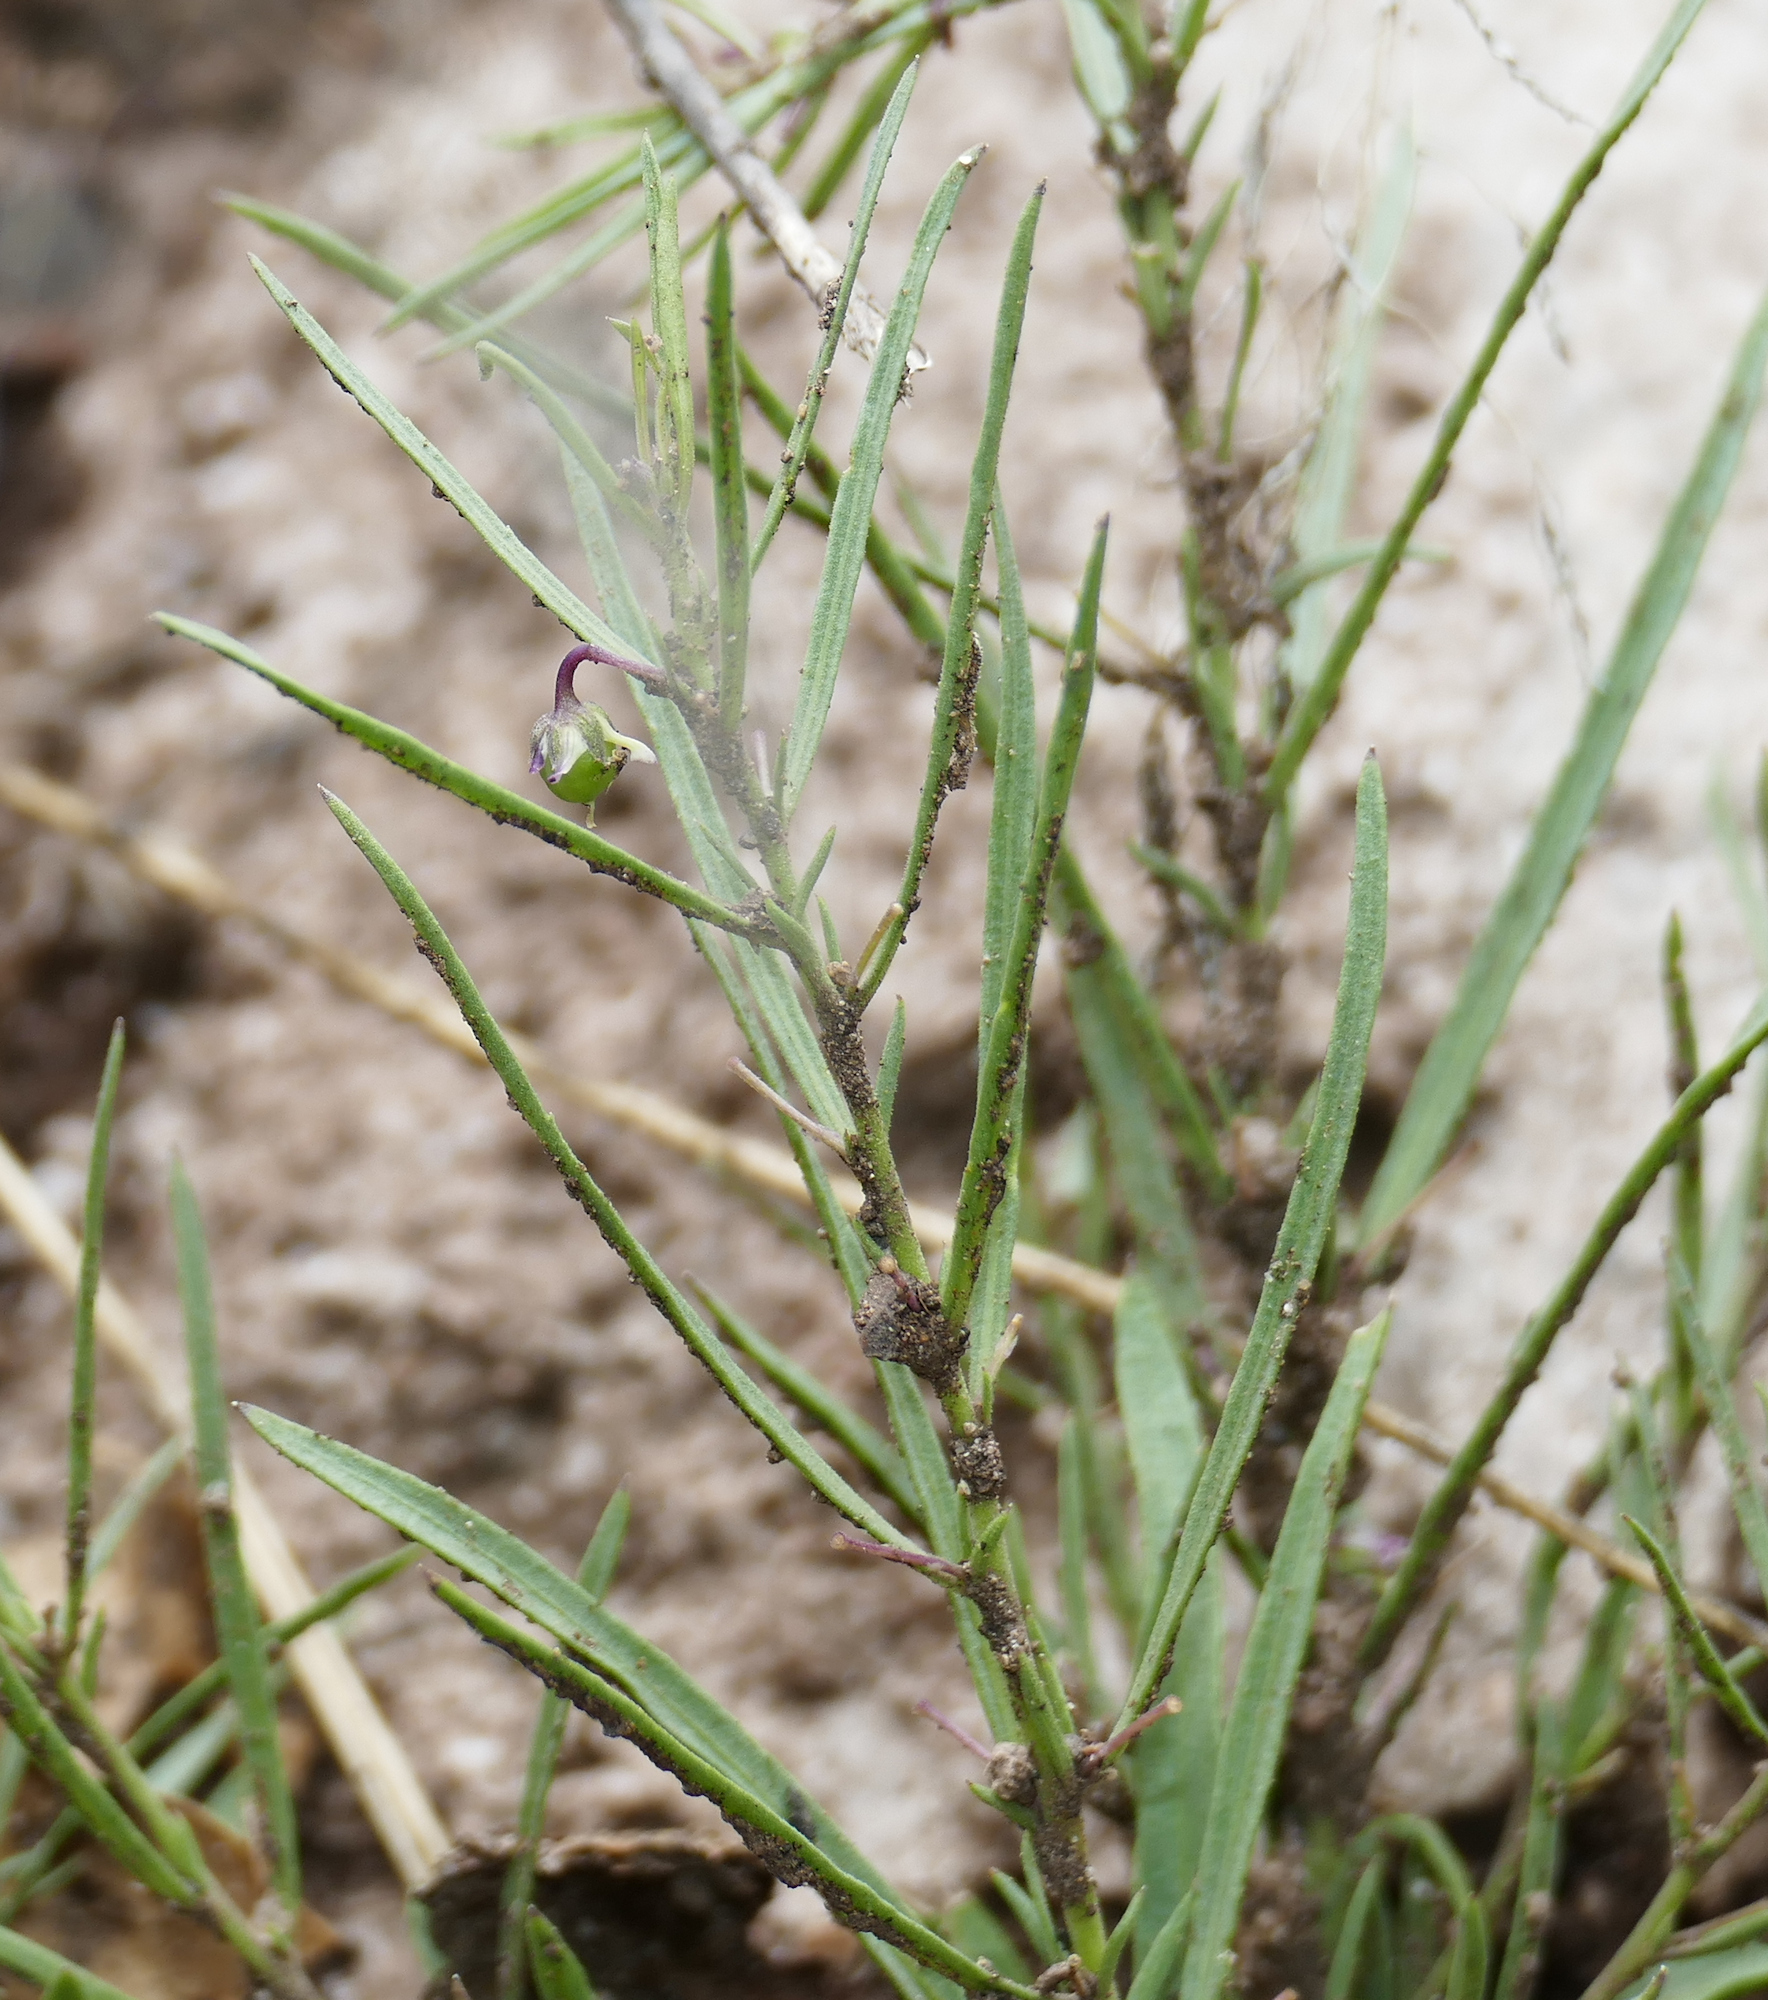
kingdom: Plantae
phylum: Tracheophyta
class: Magnoliopsida
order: Malpighiales
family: Violaceae
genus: Pombalia
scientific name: Pombalia verticillata
